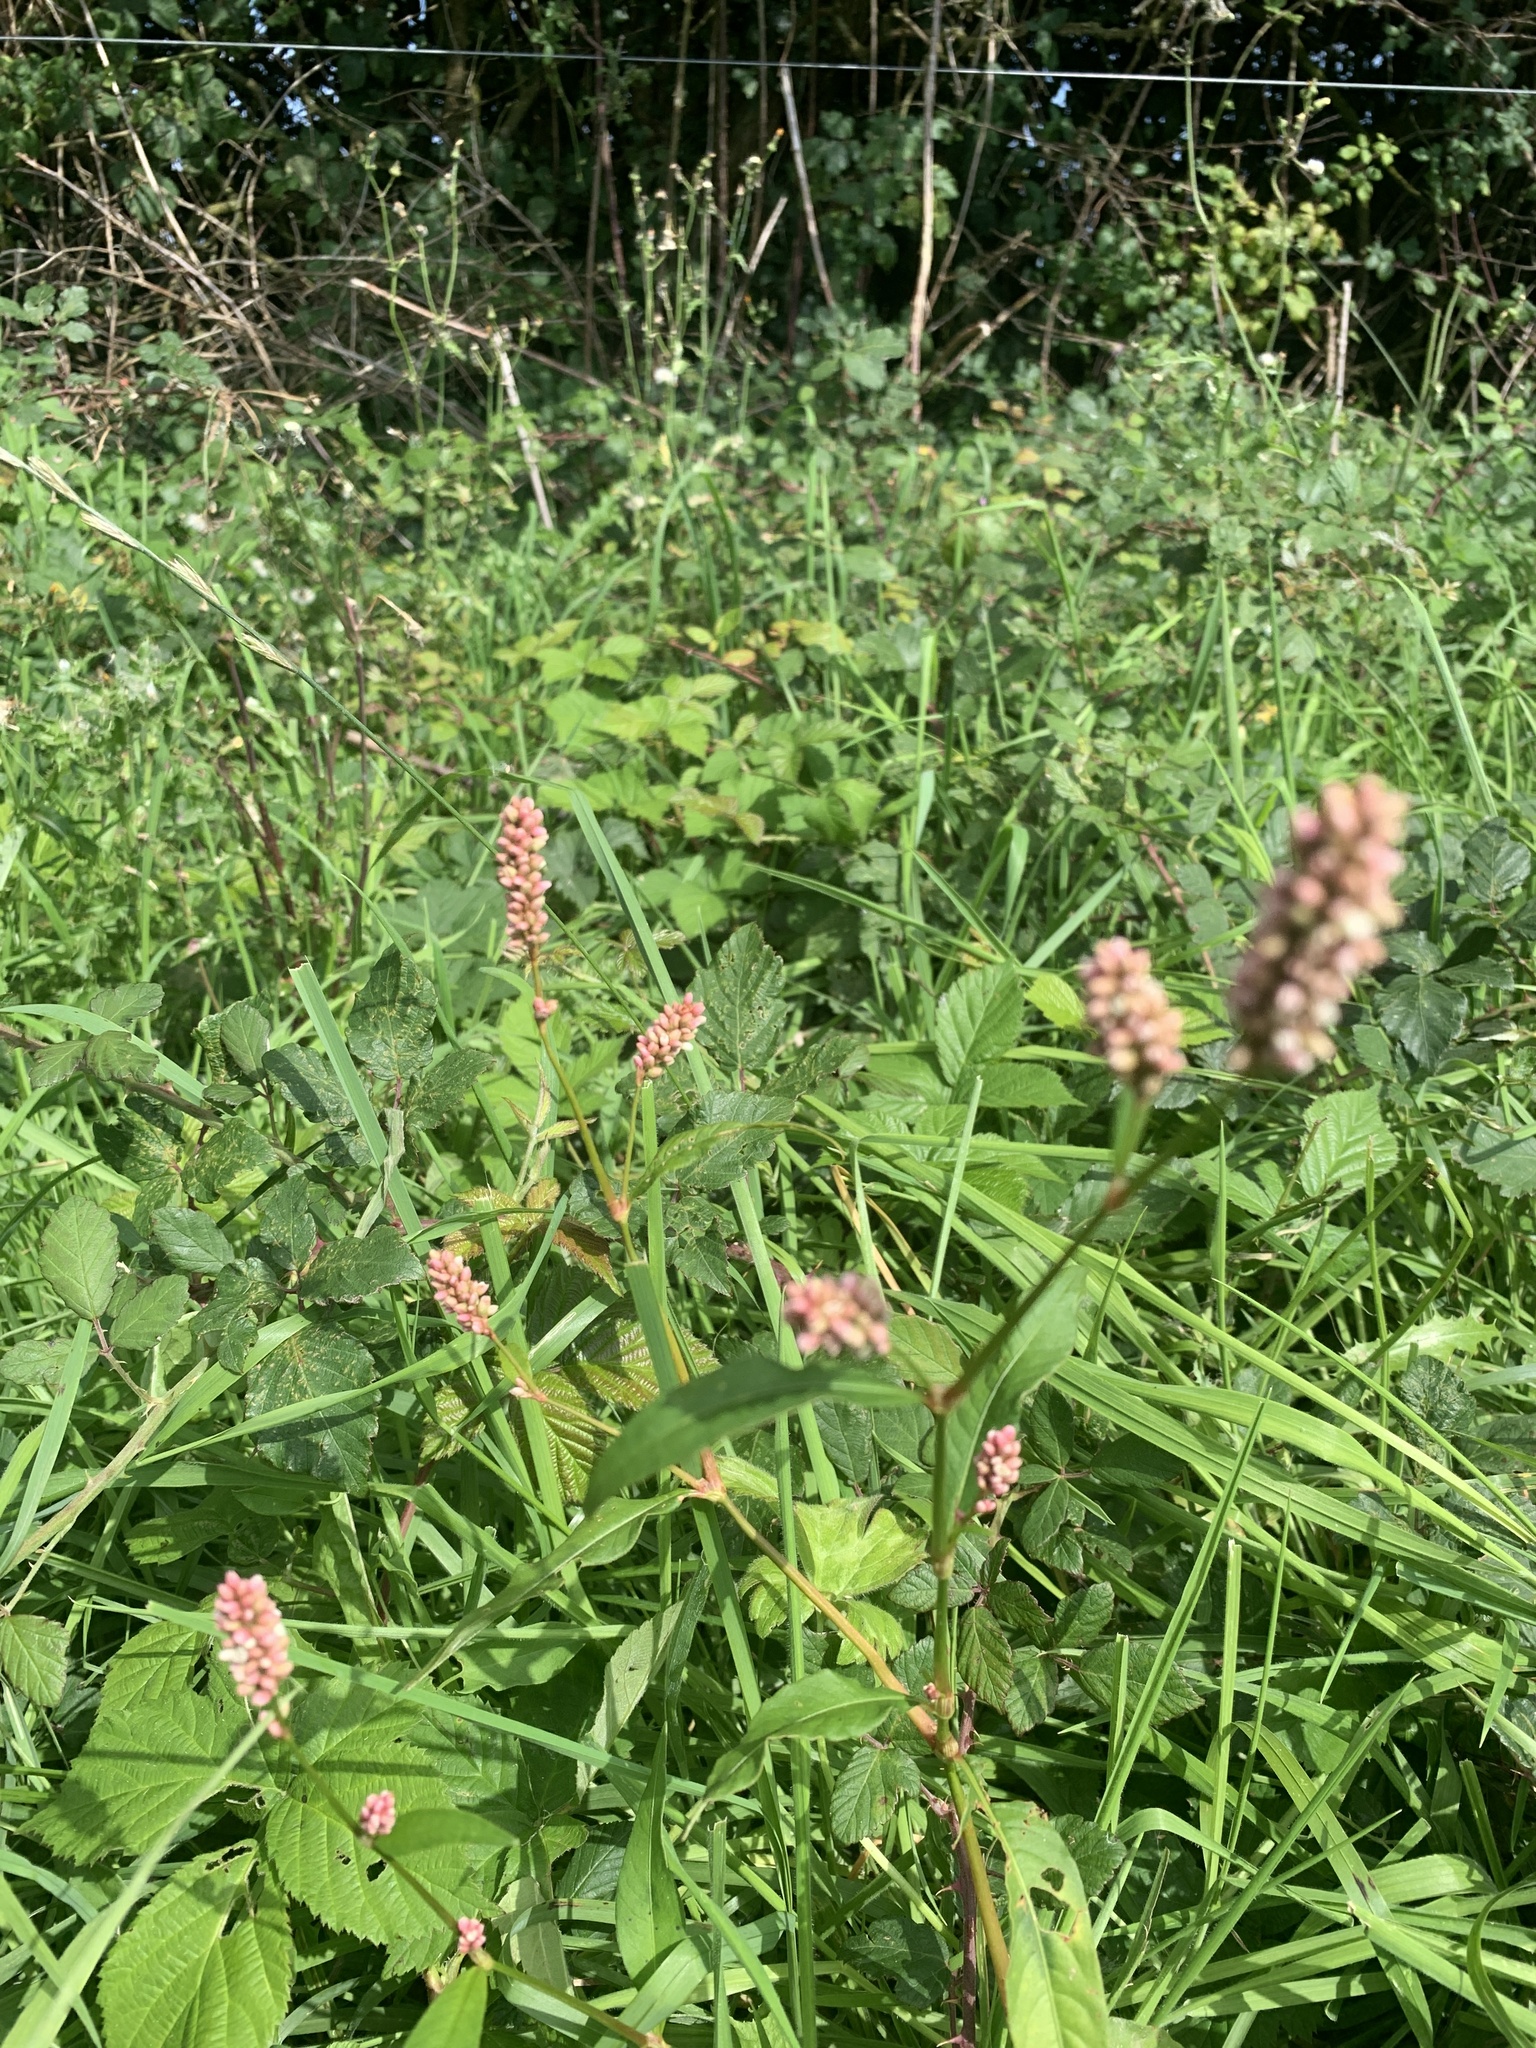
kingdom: Plantae
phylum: Tracheophyta
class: Magnoliopsida
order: Caryophyllales
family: Polygonaceae
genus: Persicaria
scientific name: Persicaria maculosa
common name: Redshank
